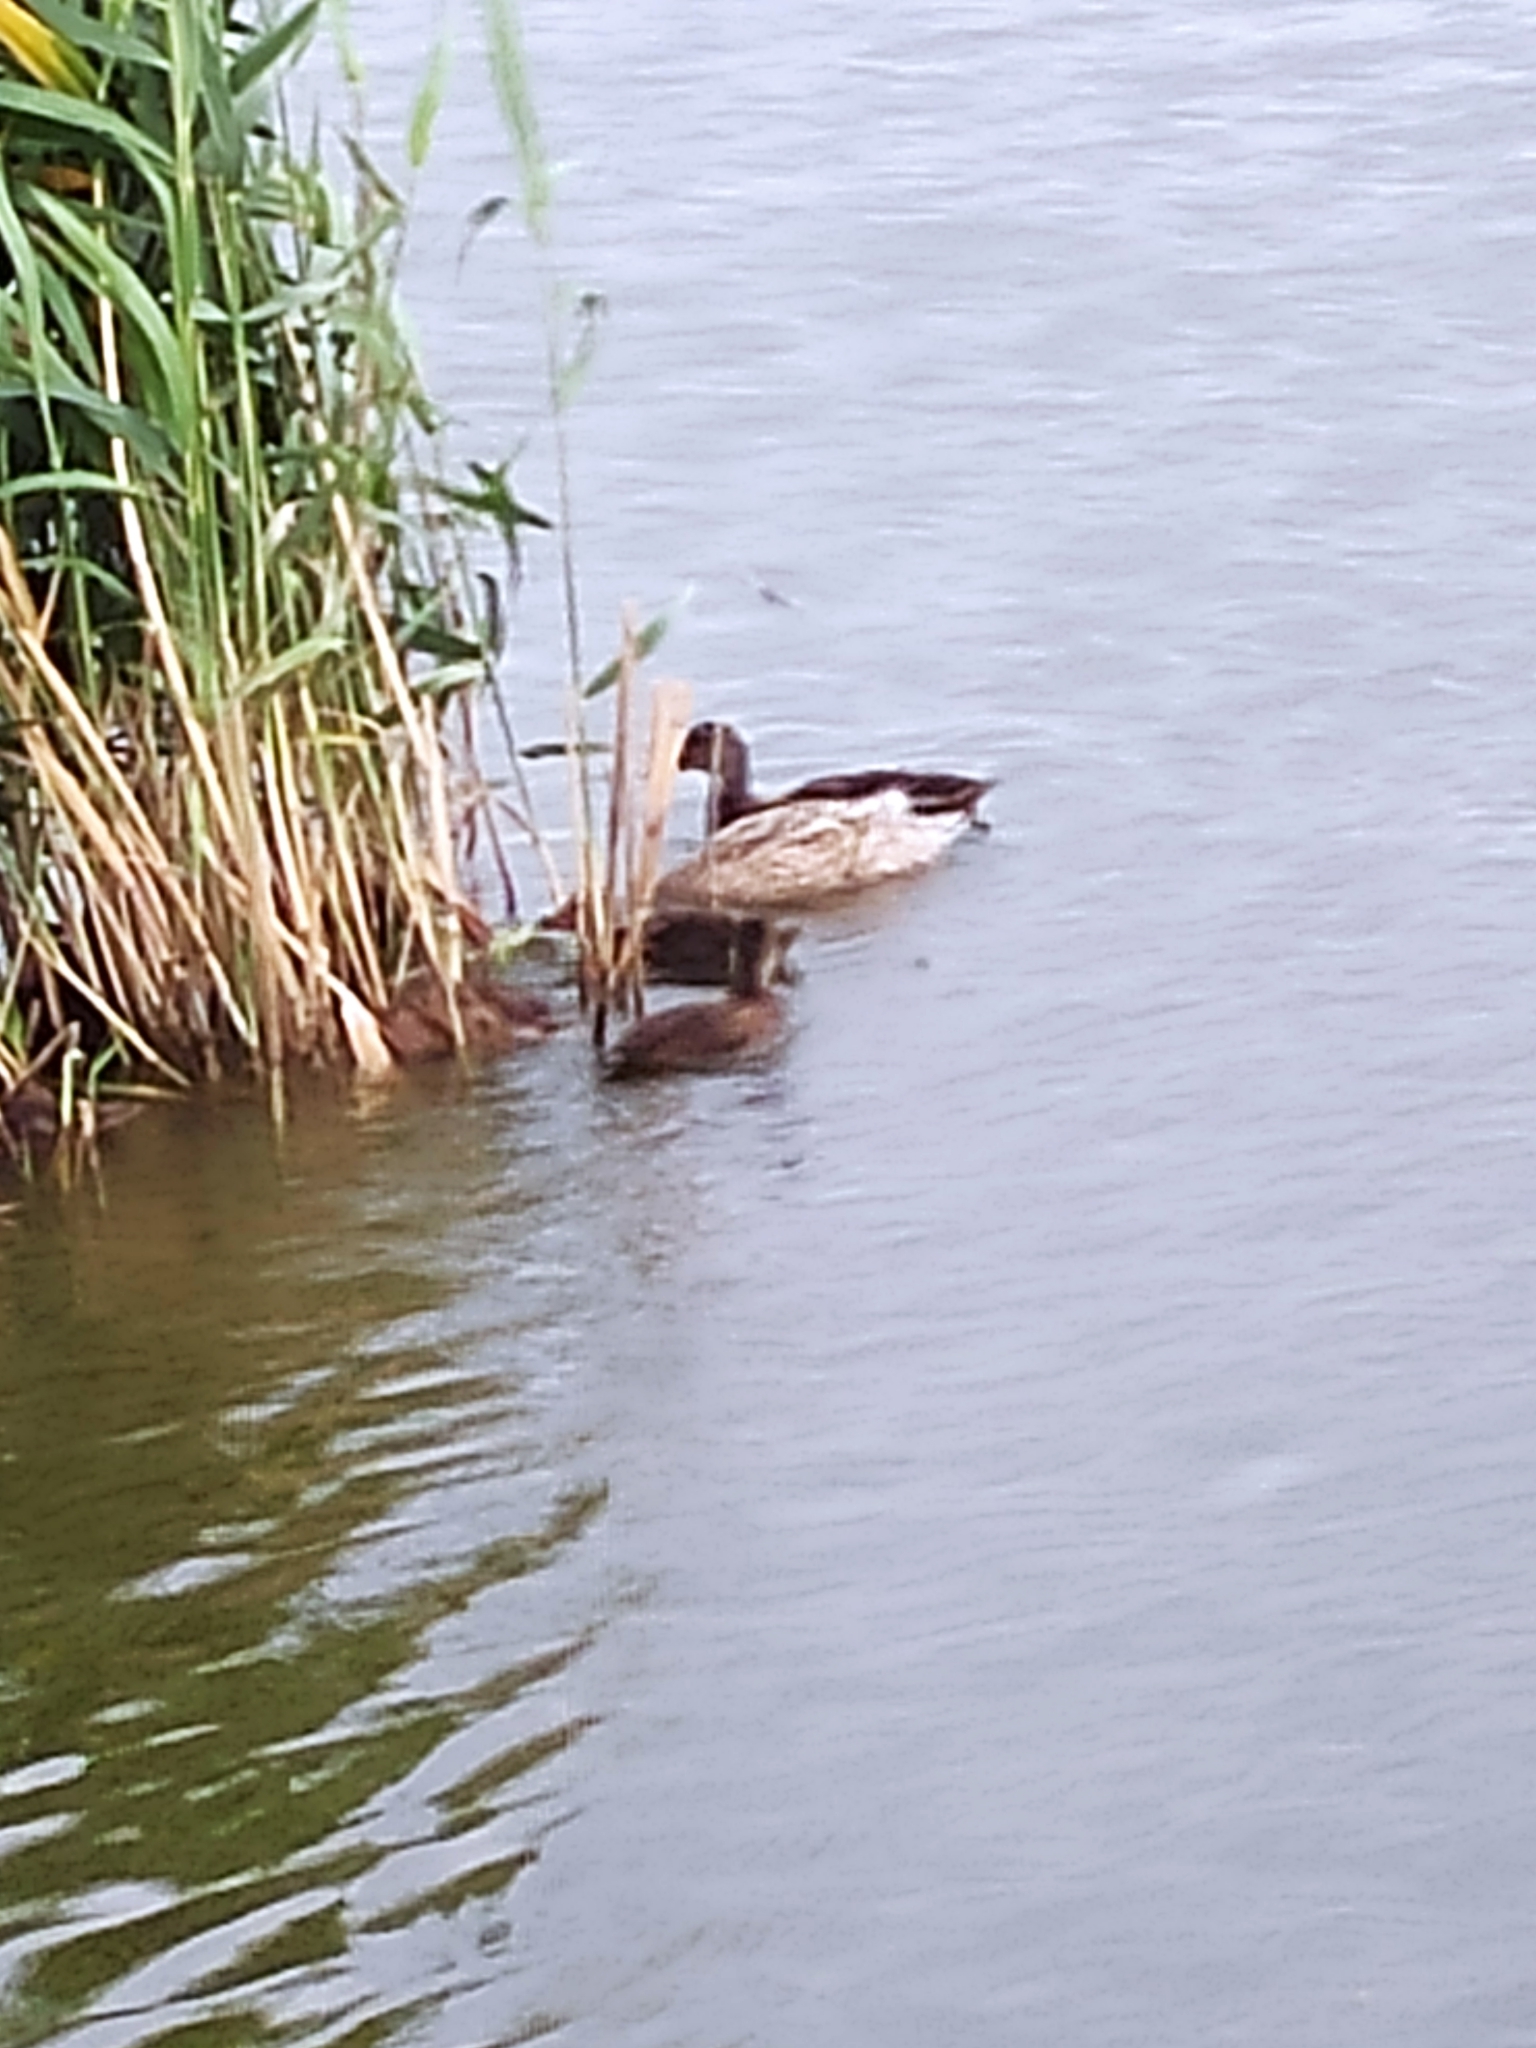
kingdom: Animalia
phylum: Chordata
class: Aves
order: Anseriformes
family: Anatidae
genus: Anas
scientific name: Anas platyrhynchos
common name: Mallard
